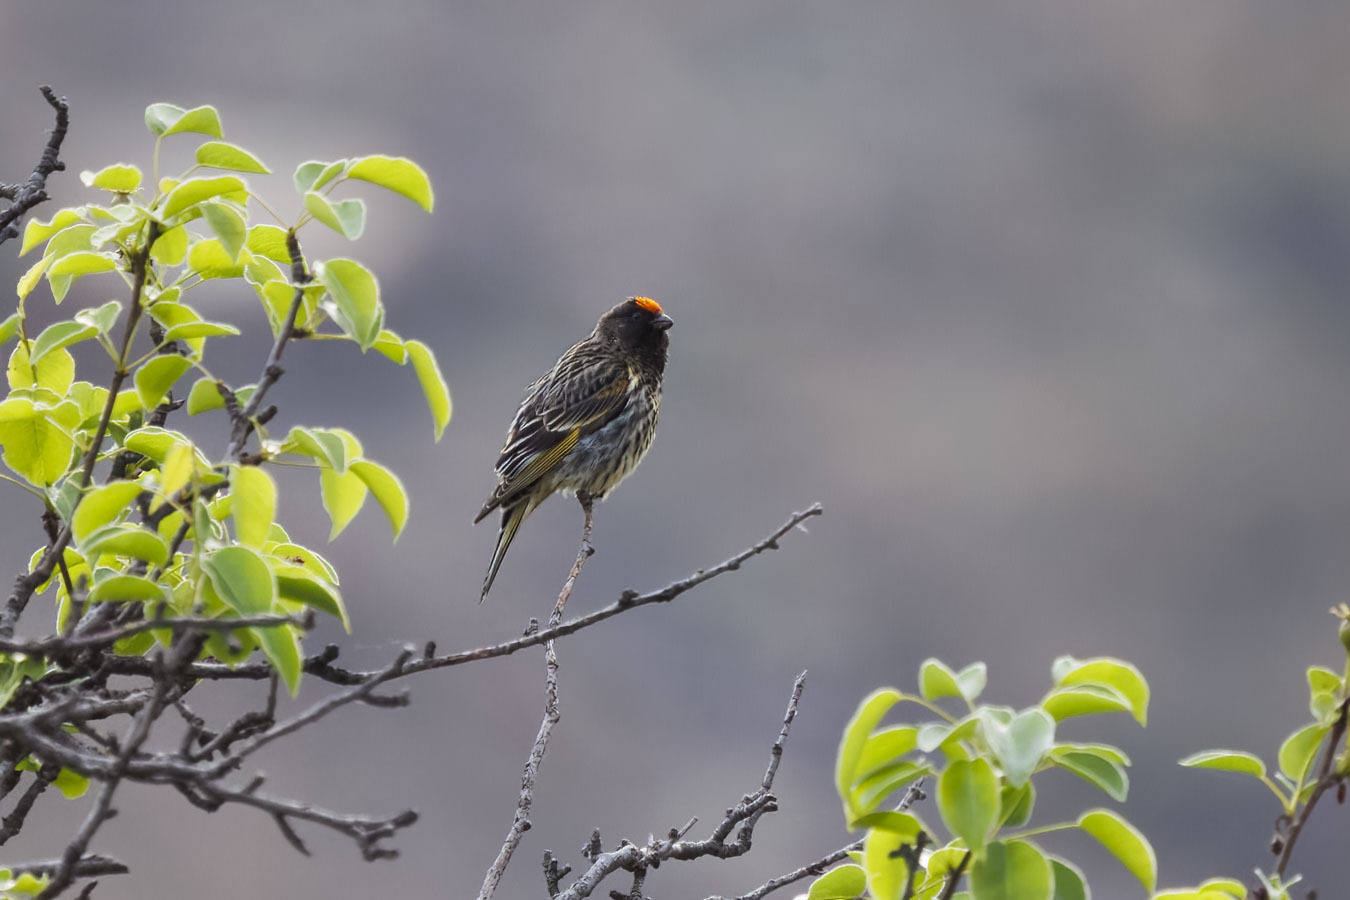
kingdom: Animalia
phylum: Chordata
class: Aves
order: Passeriformes
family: Fringillidae
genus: Serinus
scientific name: Serinus pusillus
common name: Red-fronted serin
